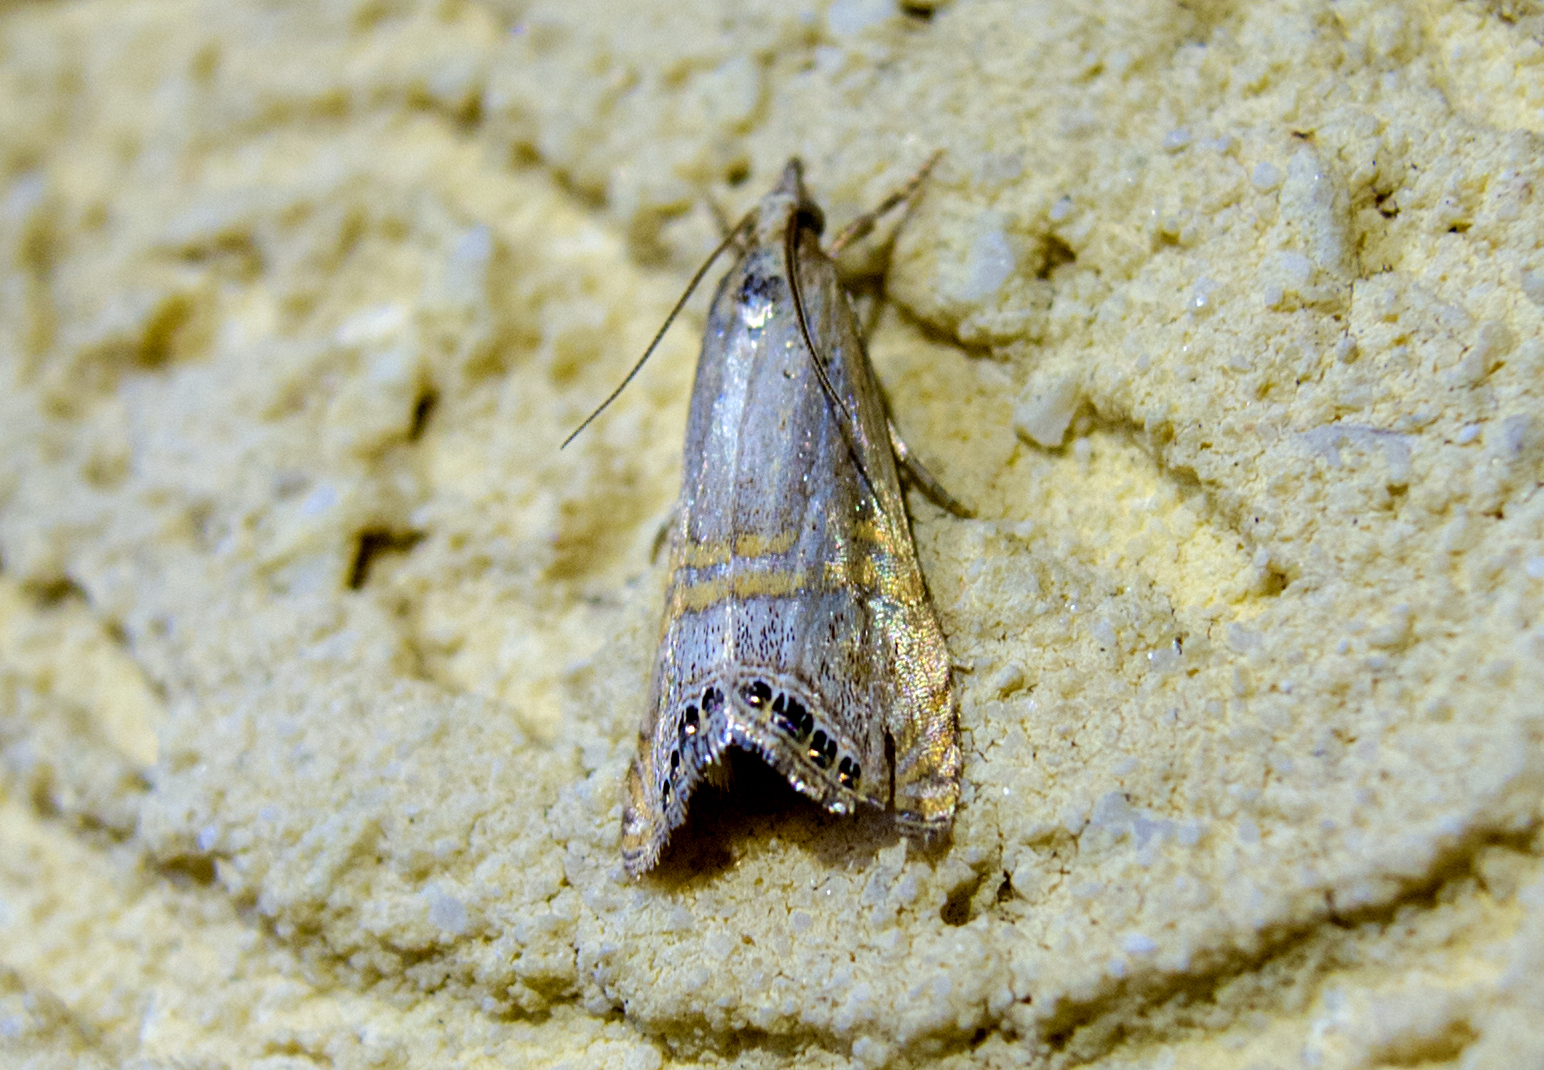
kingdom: Animalia
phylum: Arthropoda
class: Insecta
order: Lepidoptera
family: Crambidae
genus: Euchromius
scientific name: Euchromius ocellea
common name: Necklace veneer moth
